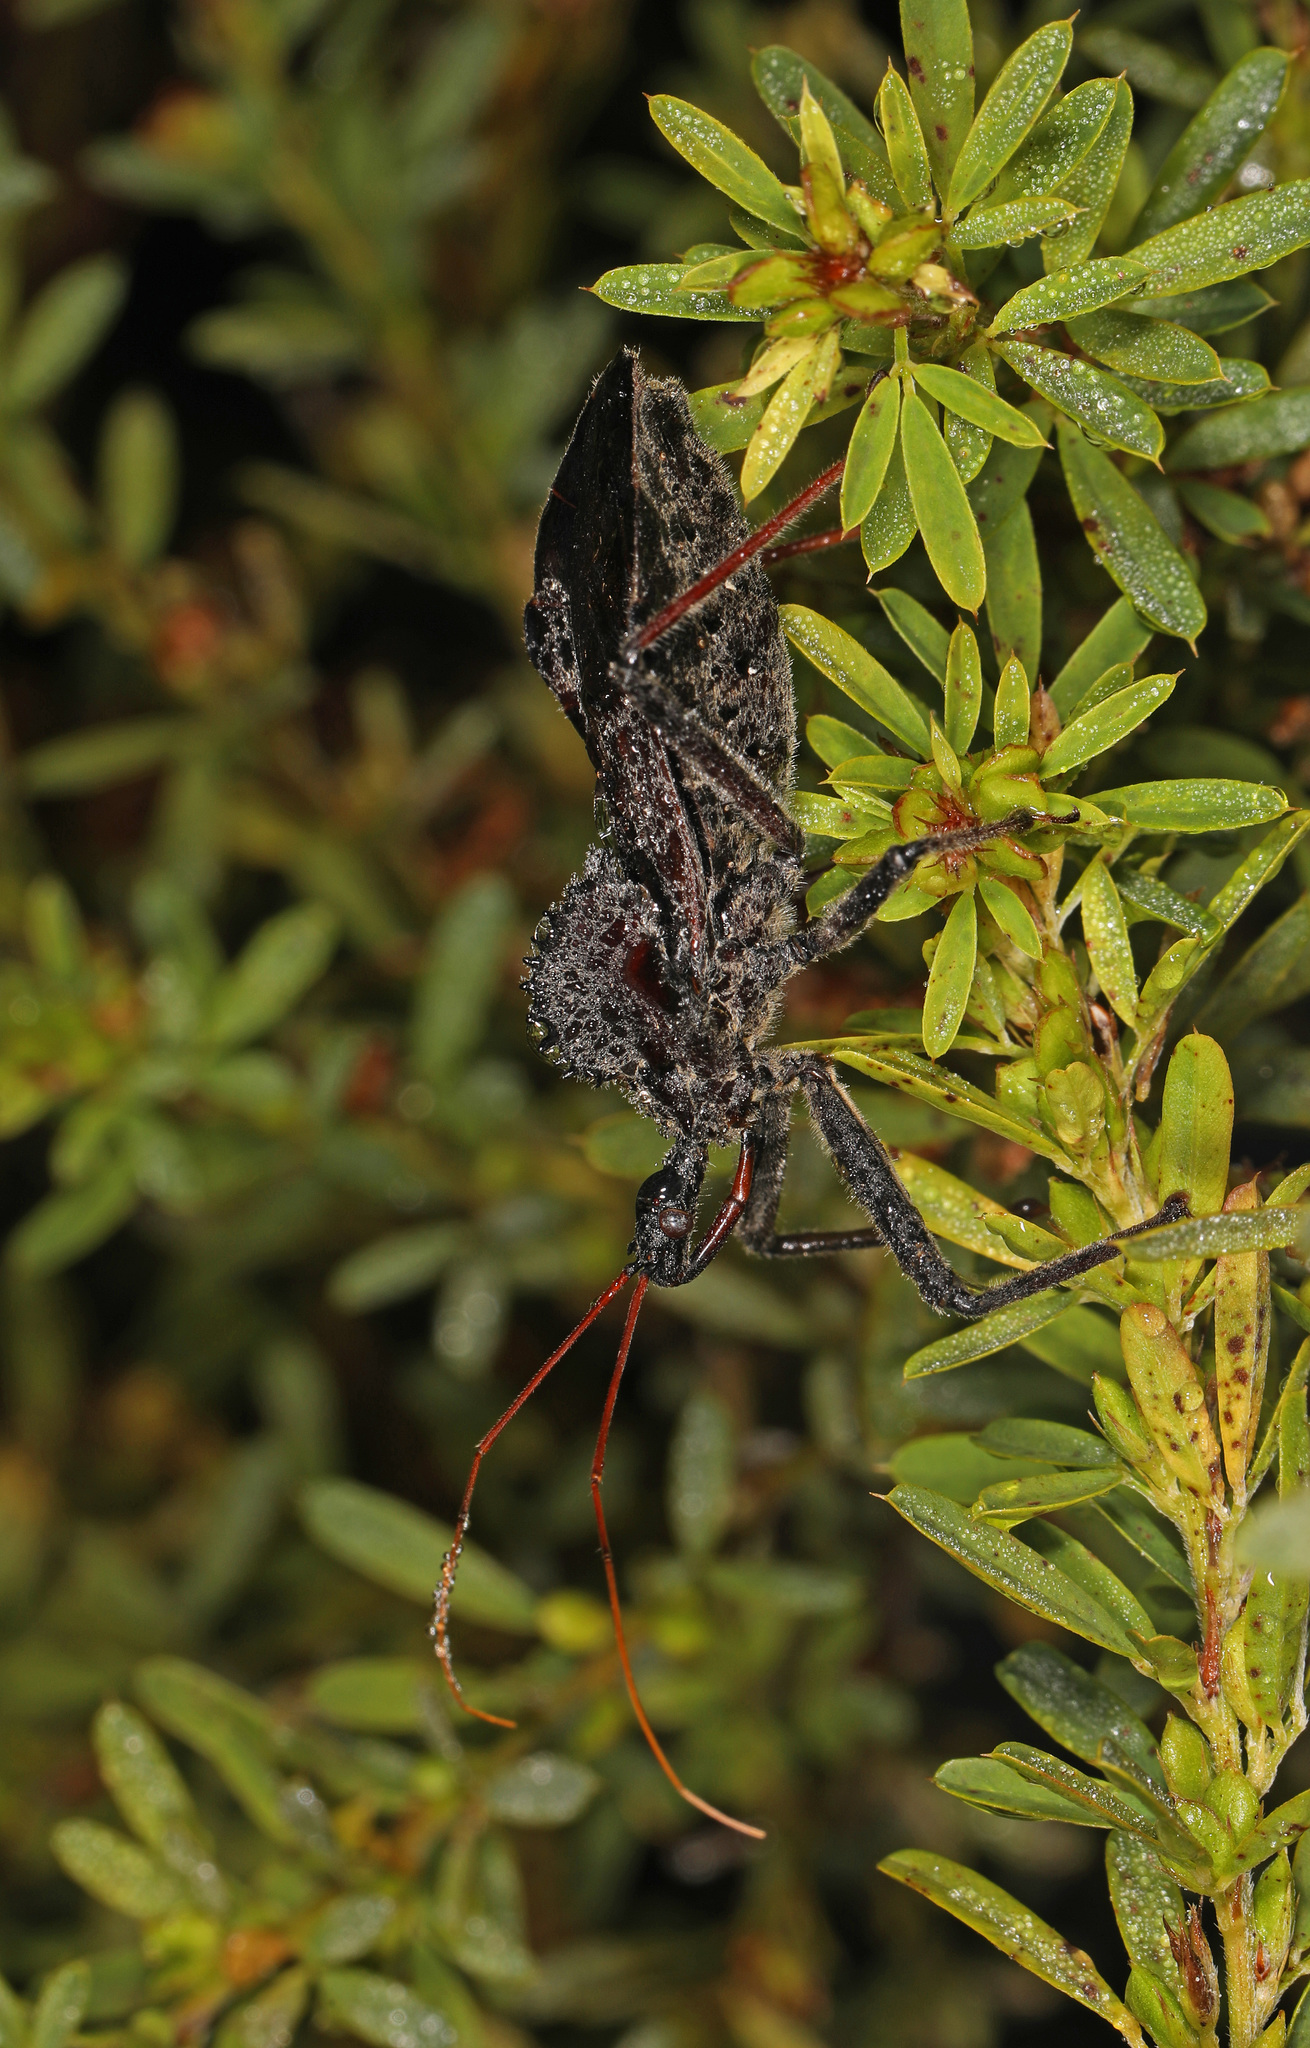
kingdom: Animalia
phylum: Arthropoda
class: Insecta
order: Hemiptera
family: Reduviidae
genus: Arilus
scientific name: Arilus cristatus
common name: North american wheel bug
